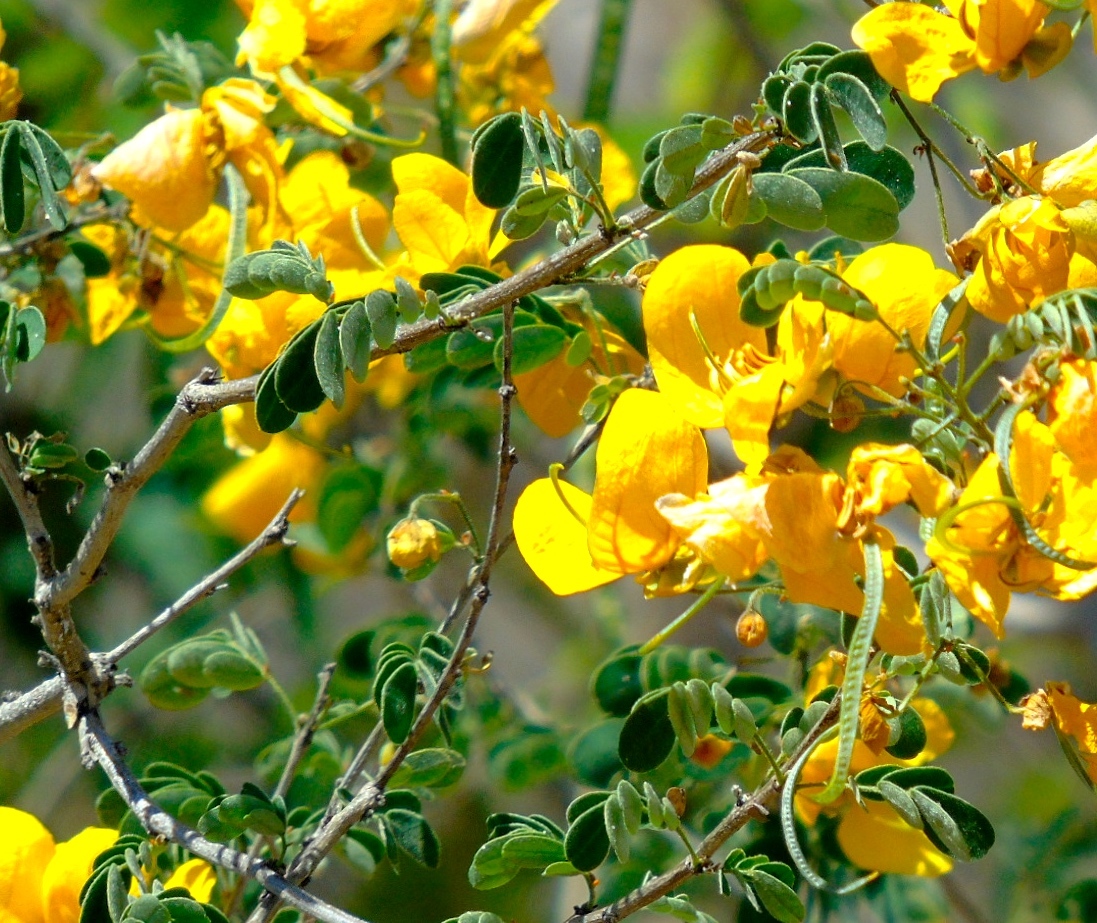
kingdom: Plantae
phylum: Tracheophyta
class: Magnoliopsida
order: Fabales
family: Fabaceae
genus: Senna
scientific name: Senna pallida
